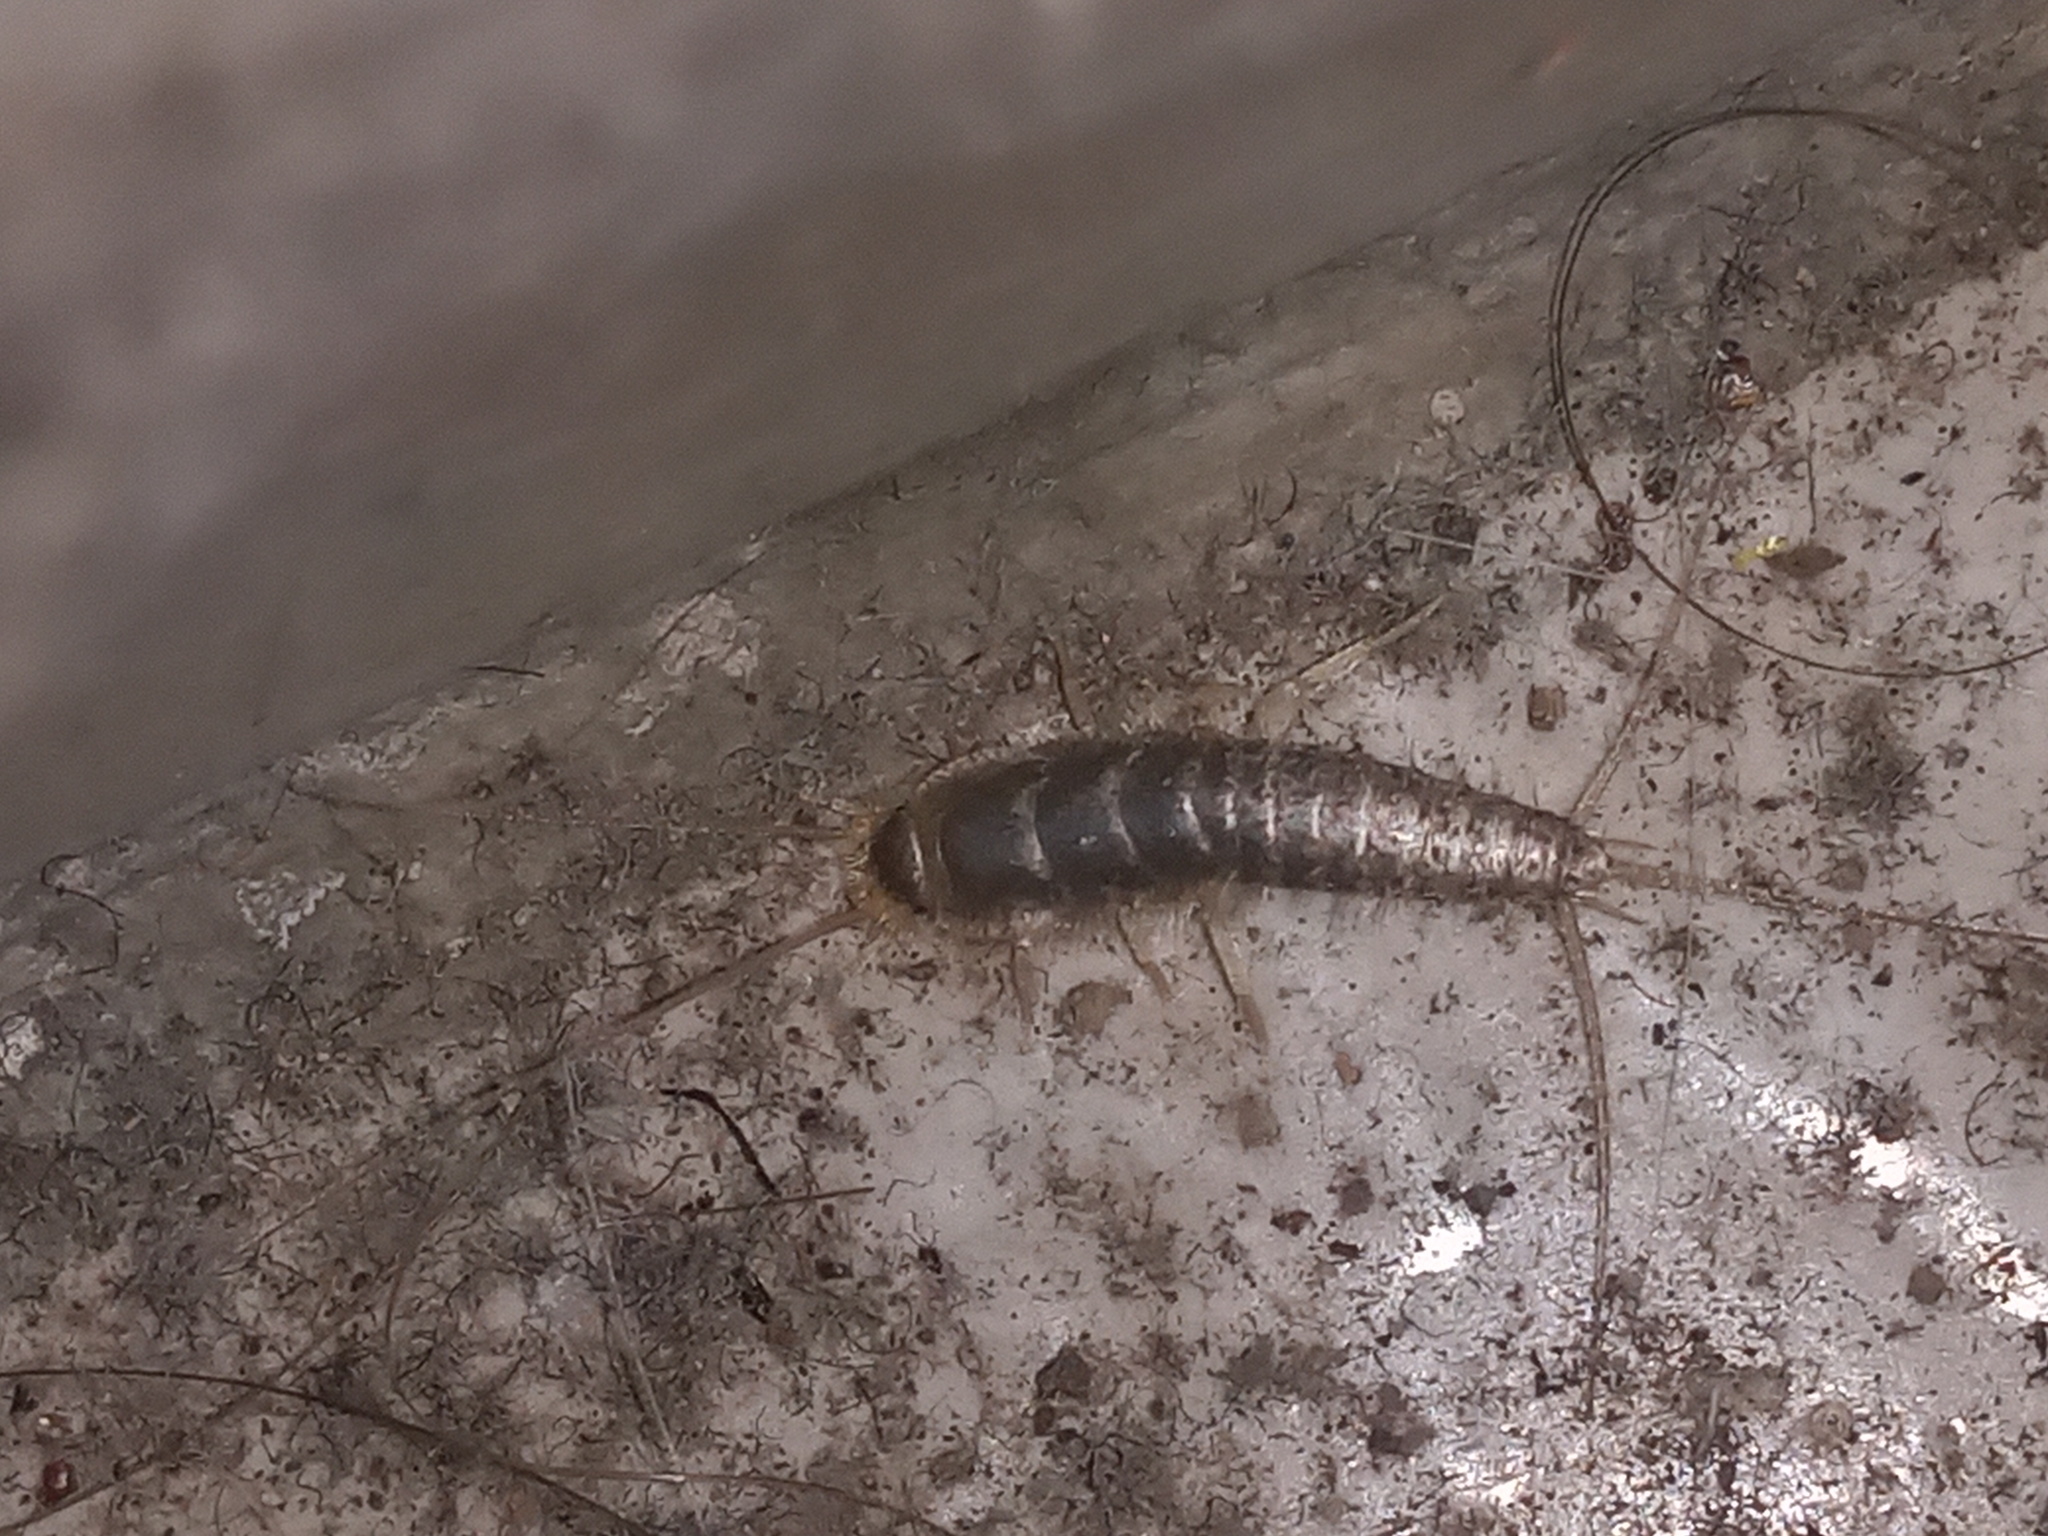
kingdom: Animalia
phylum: Arthropoda
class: Insecta
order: Zygentoma
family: Lepismatidae
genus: Ctenolepisma
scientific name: Ctenolepisma longicaudatum
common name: Silverfish
